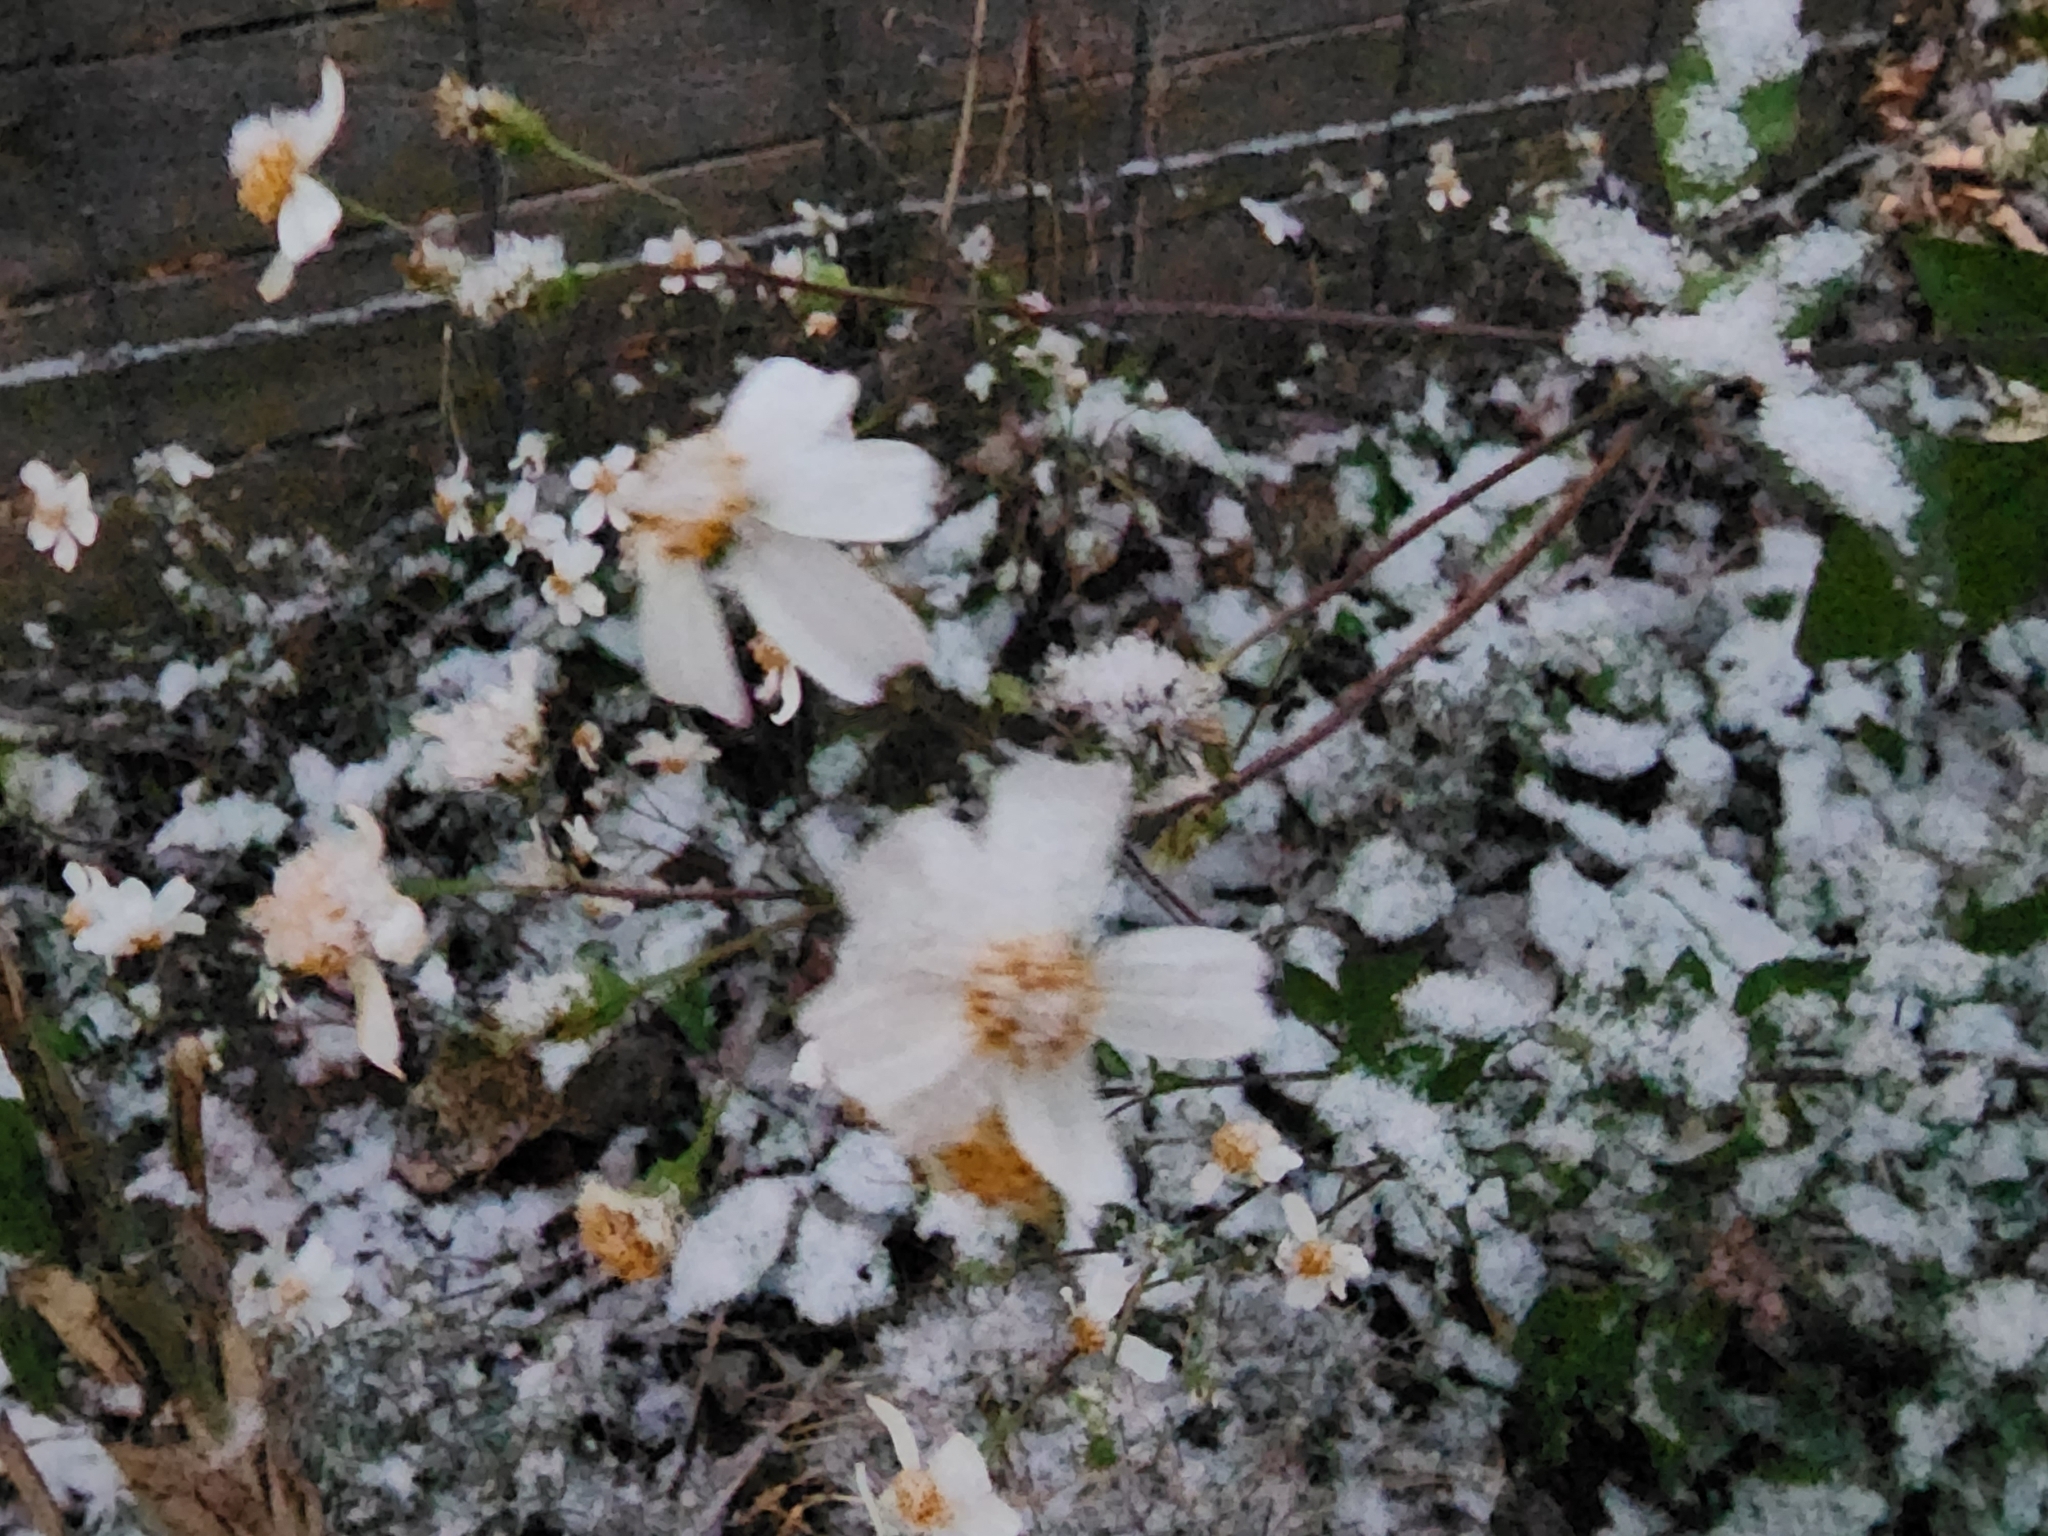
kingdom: Plantae
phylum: Tracheophyta
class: Magnoliopsida
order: Asterales
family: Asteraceae
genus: Bidens
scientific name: Bidens alba
